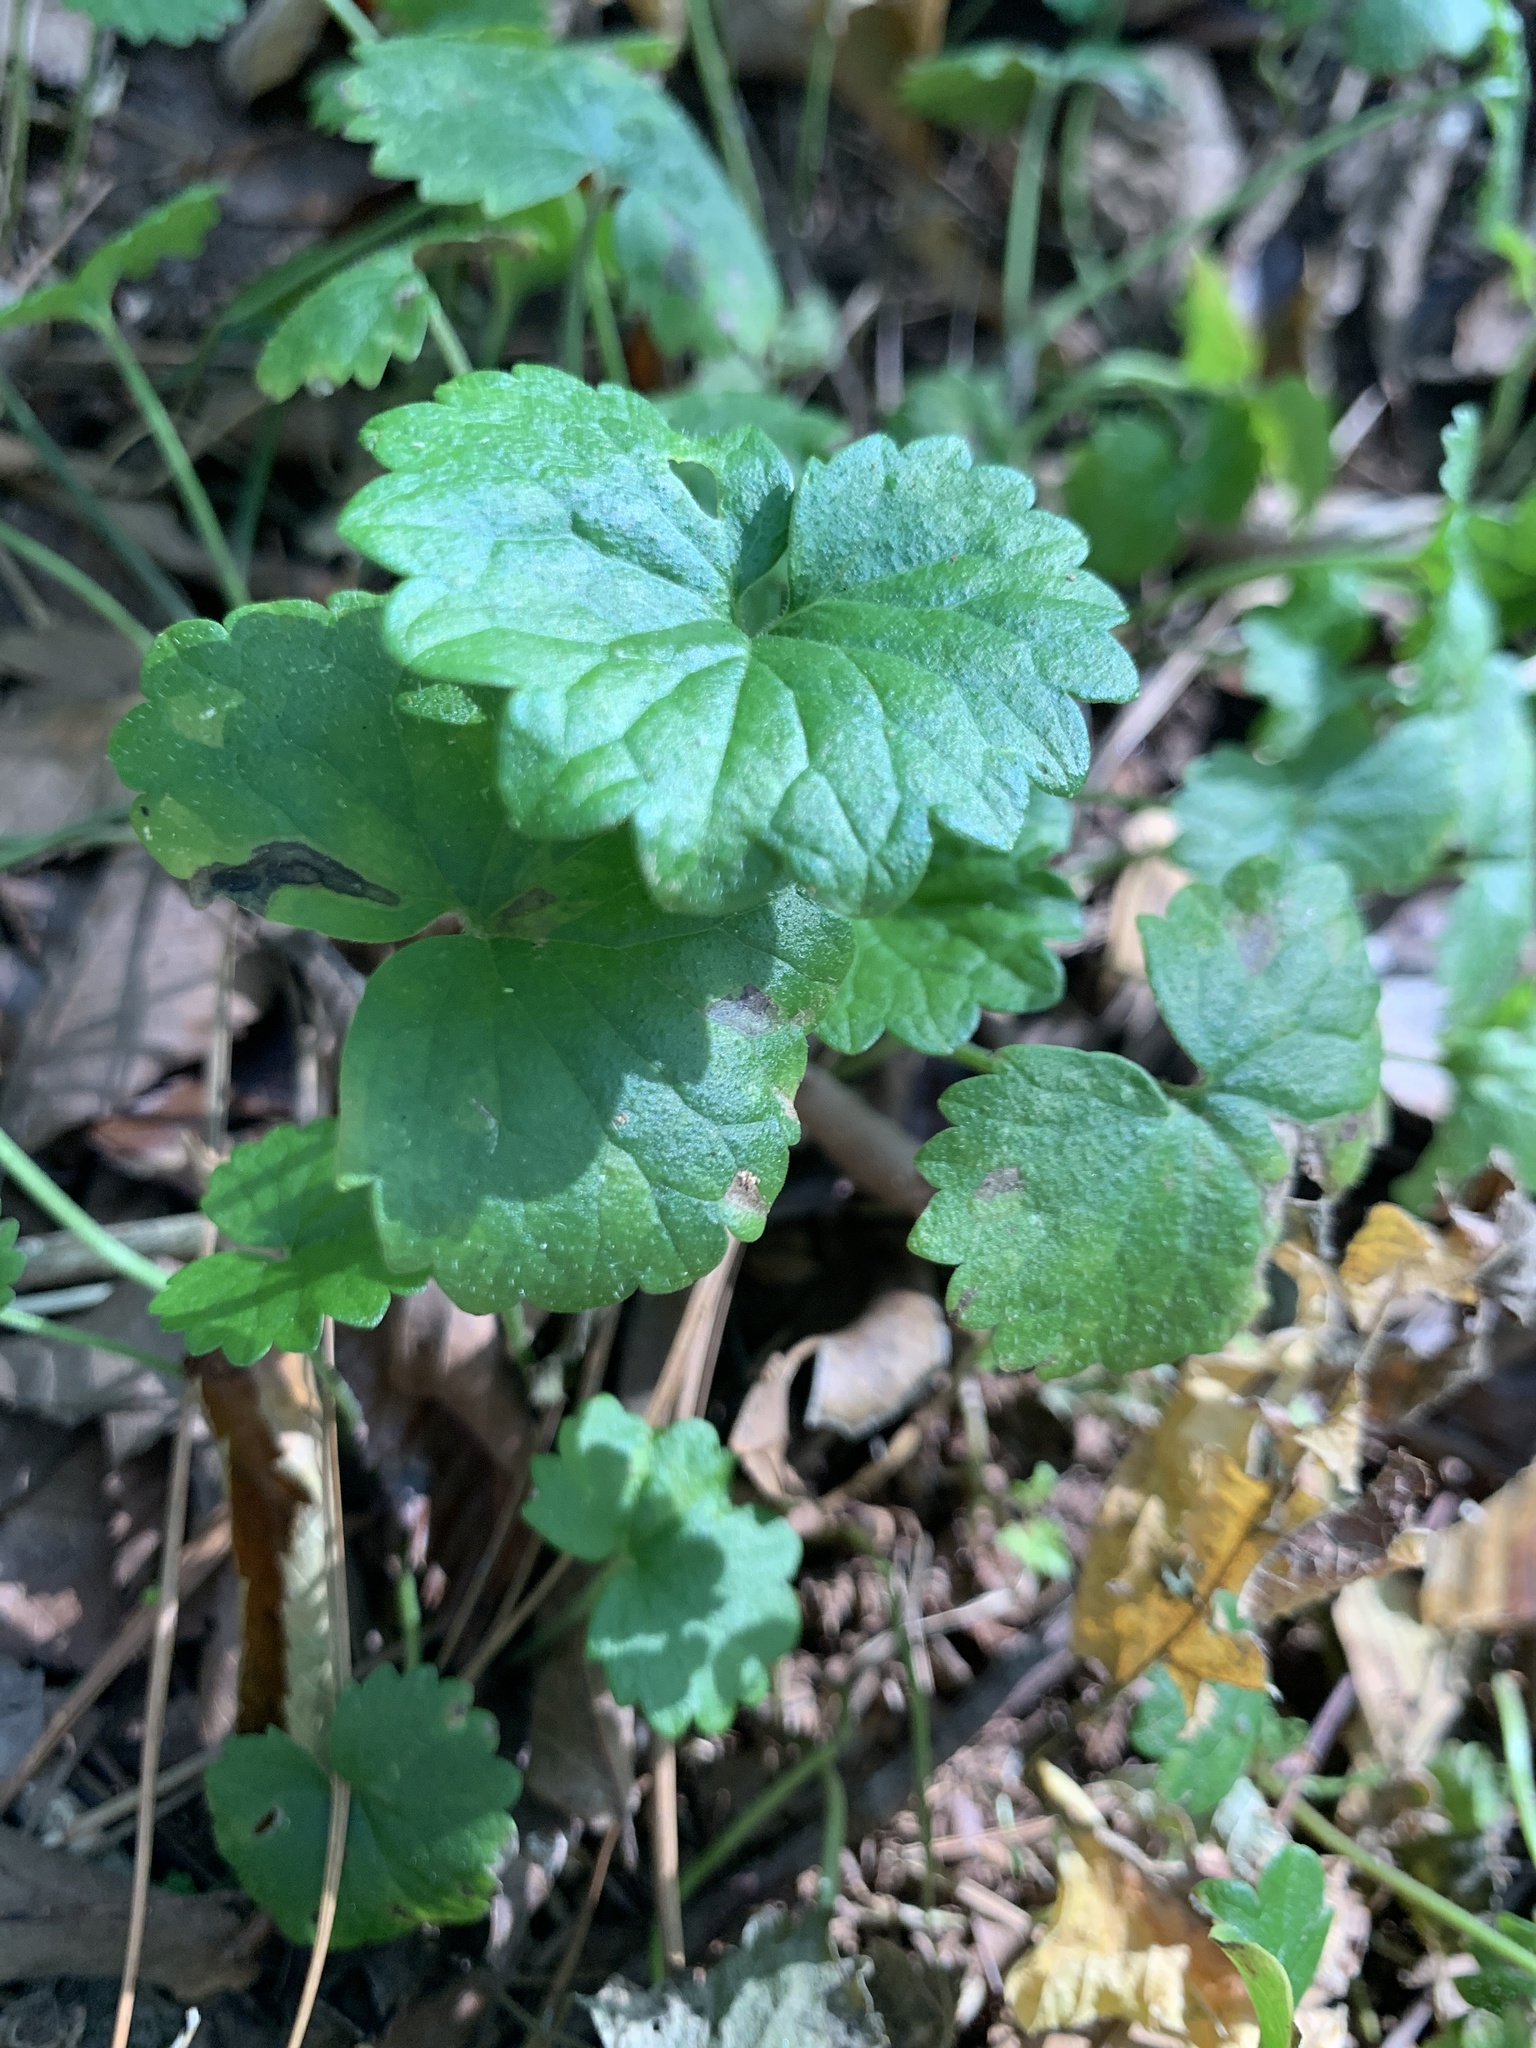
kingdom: Plantae
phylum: Tracheophyta
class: Magnoliopsida
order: Lamiales
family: Lamiaceae
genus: Glechoma
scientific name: Glechoma hederacea
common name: Ground ivy
